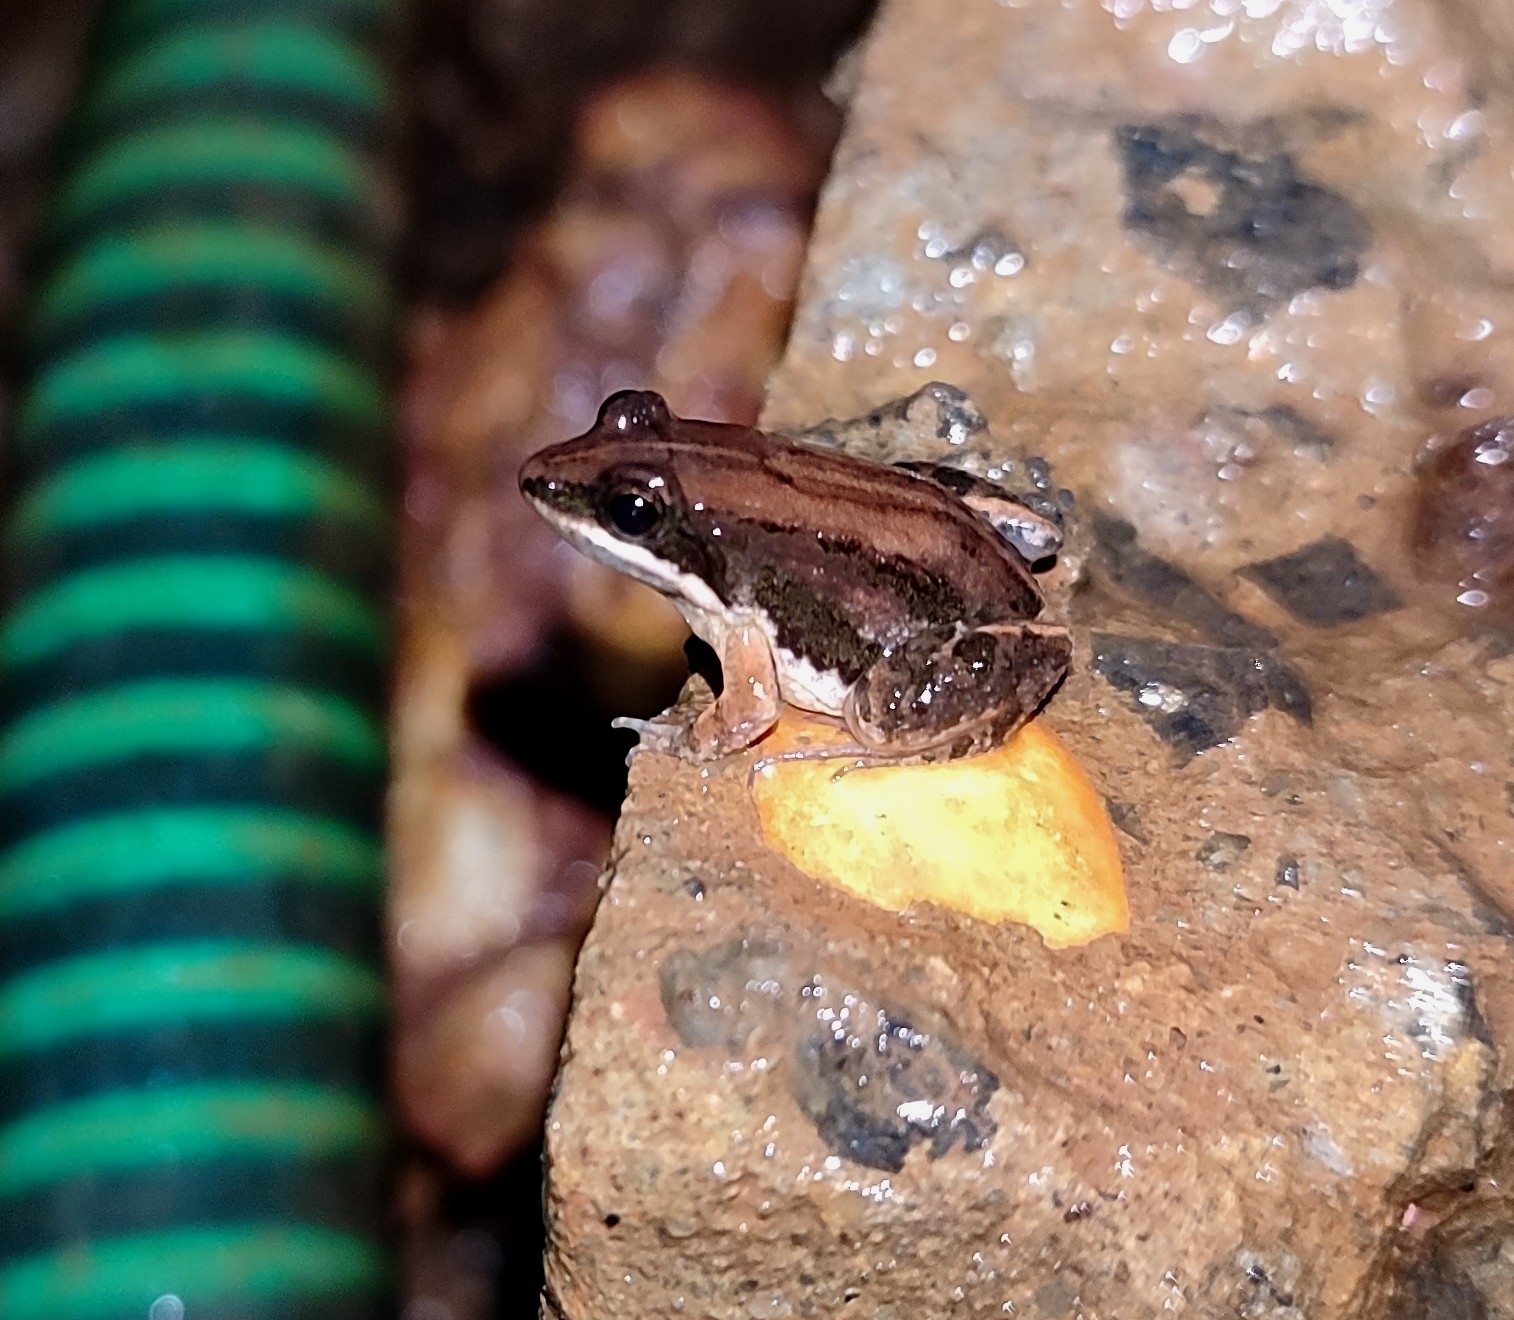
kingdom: Animalia
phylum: Chordata
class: Amphibia
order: Anura
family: Dicroglossidae
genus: Minervarya
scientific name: Minervarya sahyadris
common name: Minevarya frog
